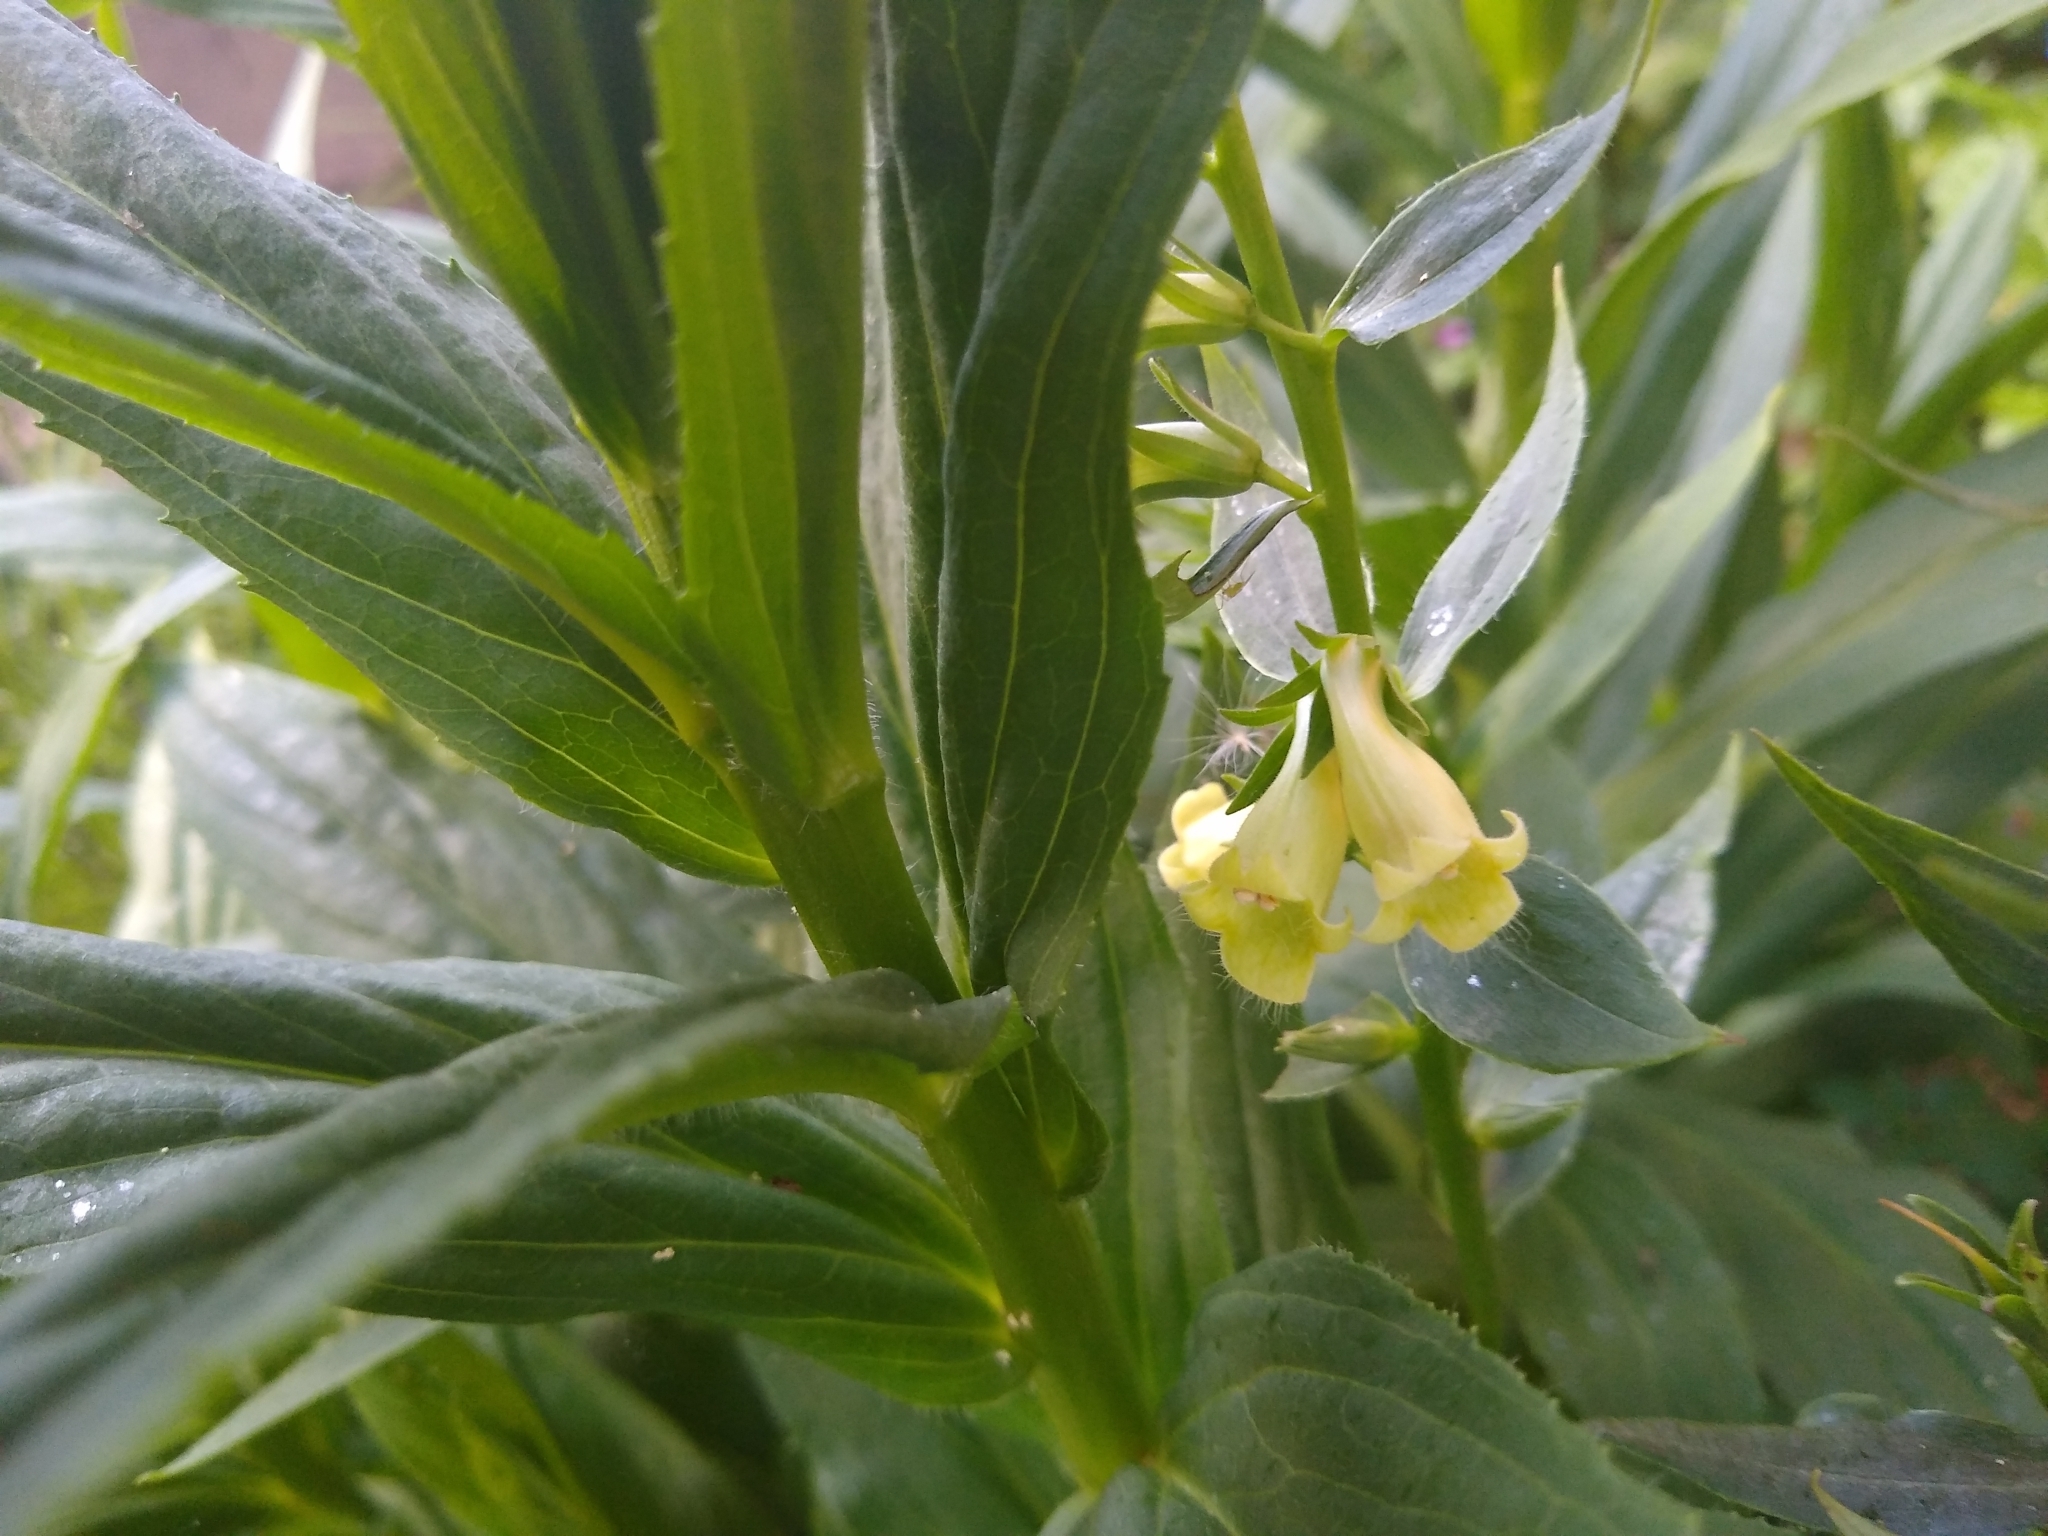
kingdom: Plantae
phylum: Tracheophyta
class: Magnoliopsida
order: Lamiales
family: Plantaginaceae
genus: Digitalis
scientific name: Digitalis lutea
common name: Straw foxglove
